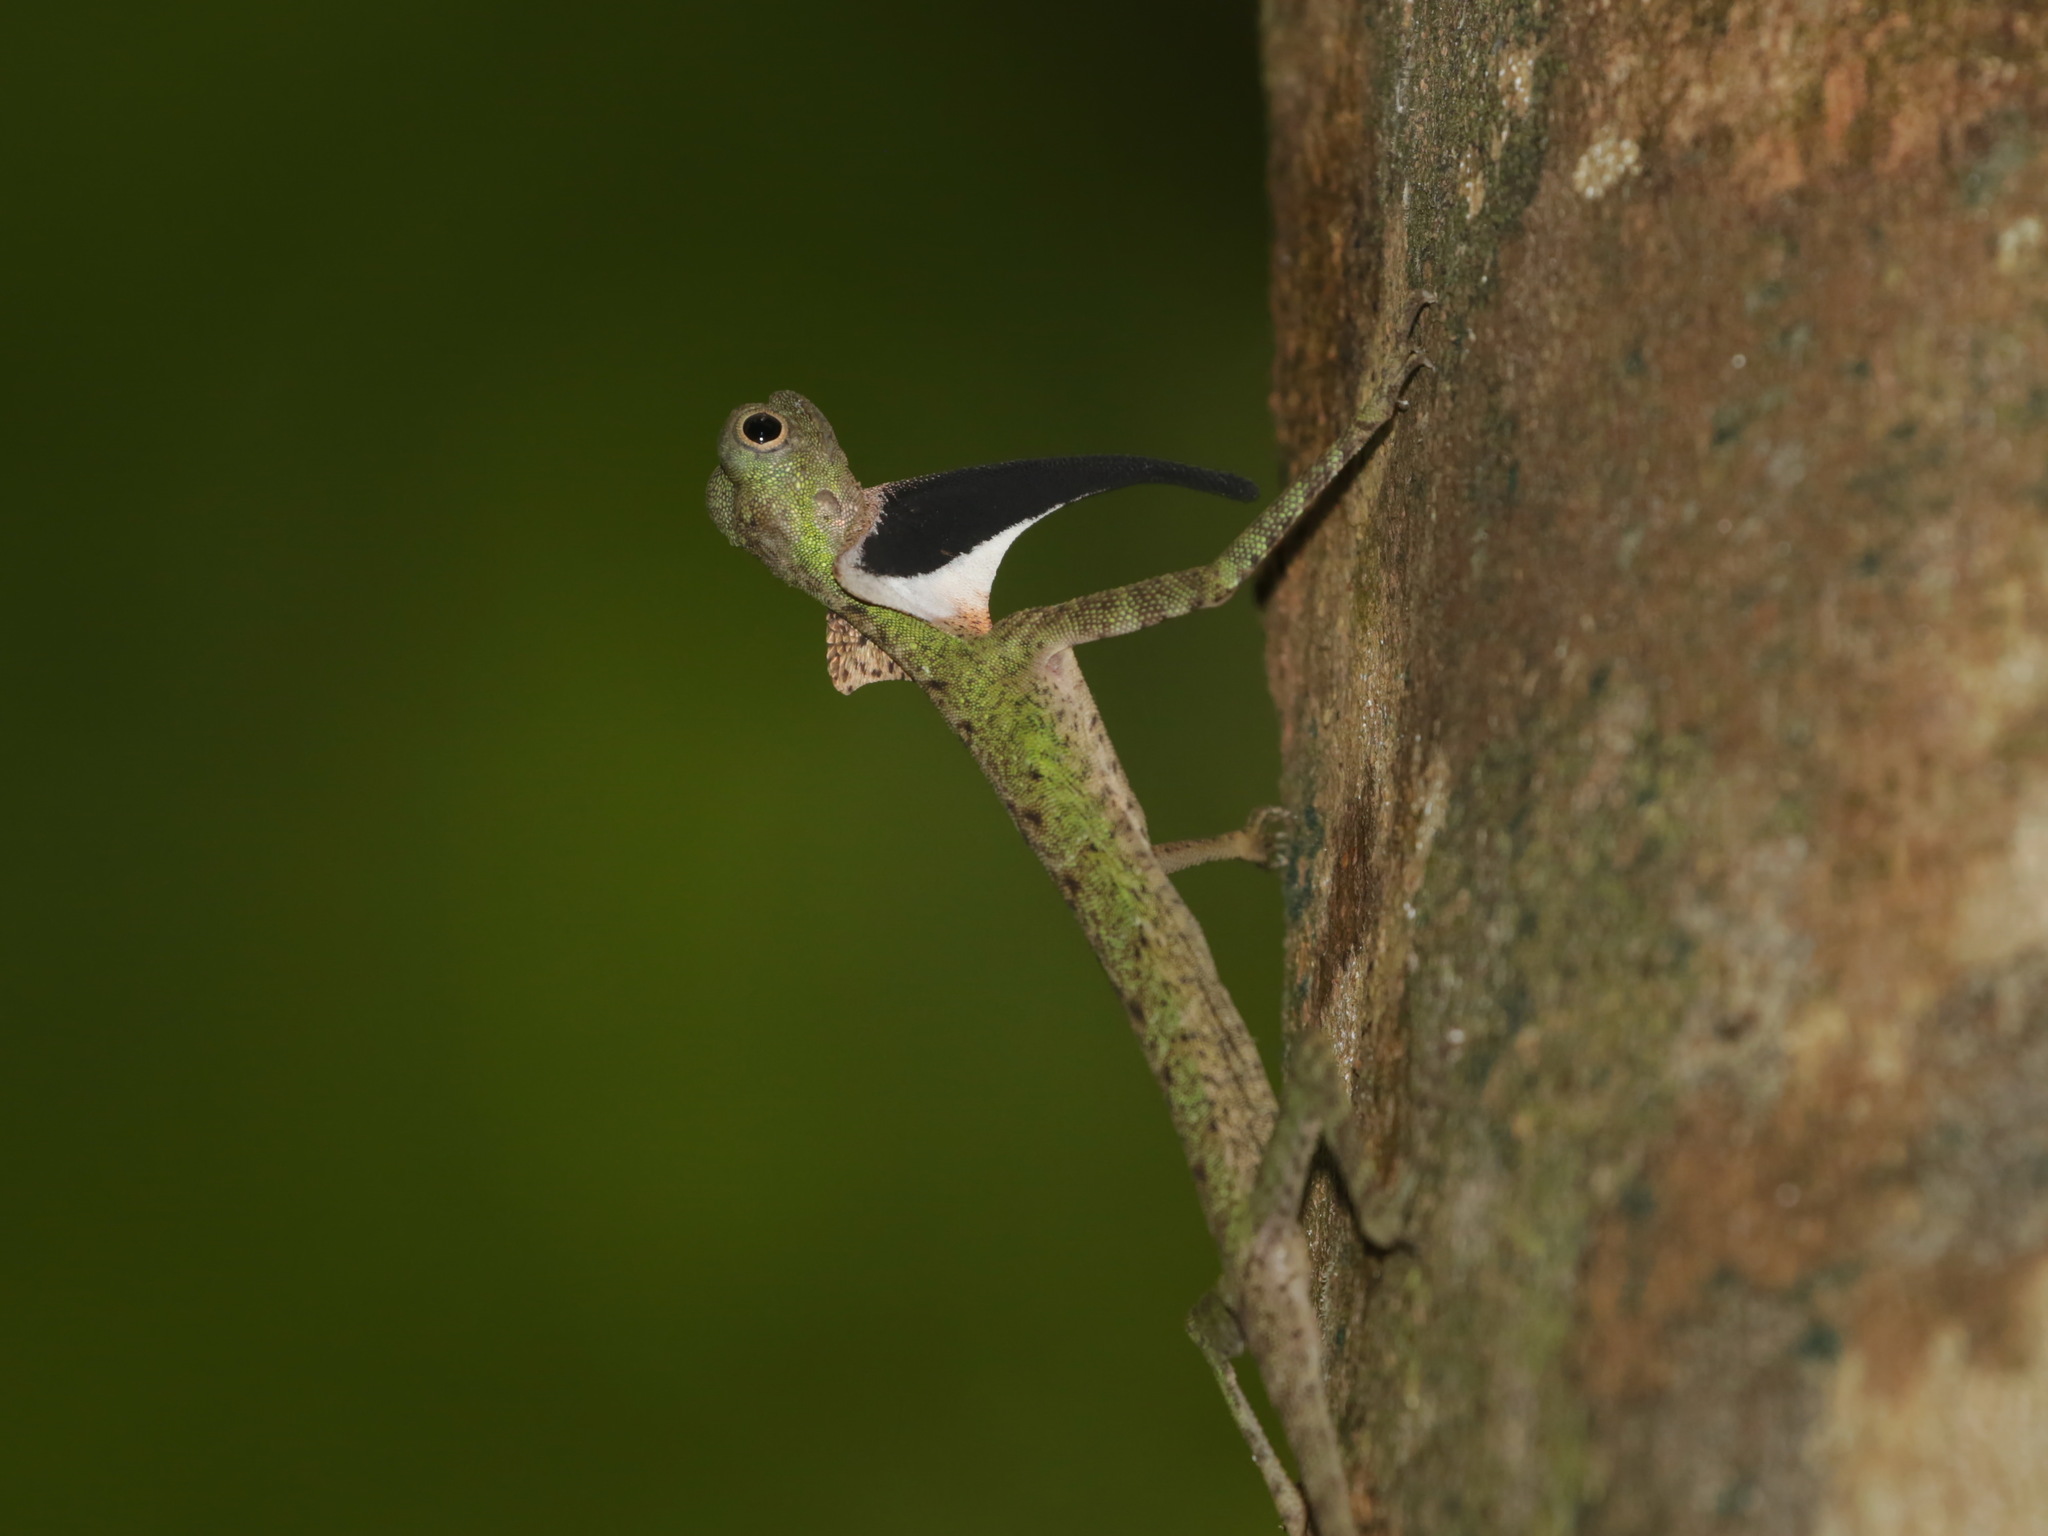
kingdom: Animalia
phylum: Chordata
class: Squamata
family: Agamidae
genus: Draco
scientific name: Draco melanopogon
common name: Black-barbed flying dragon
